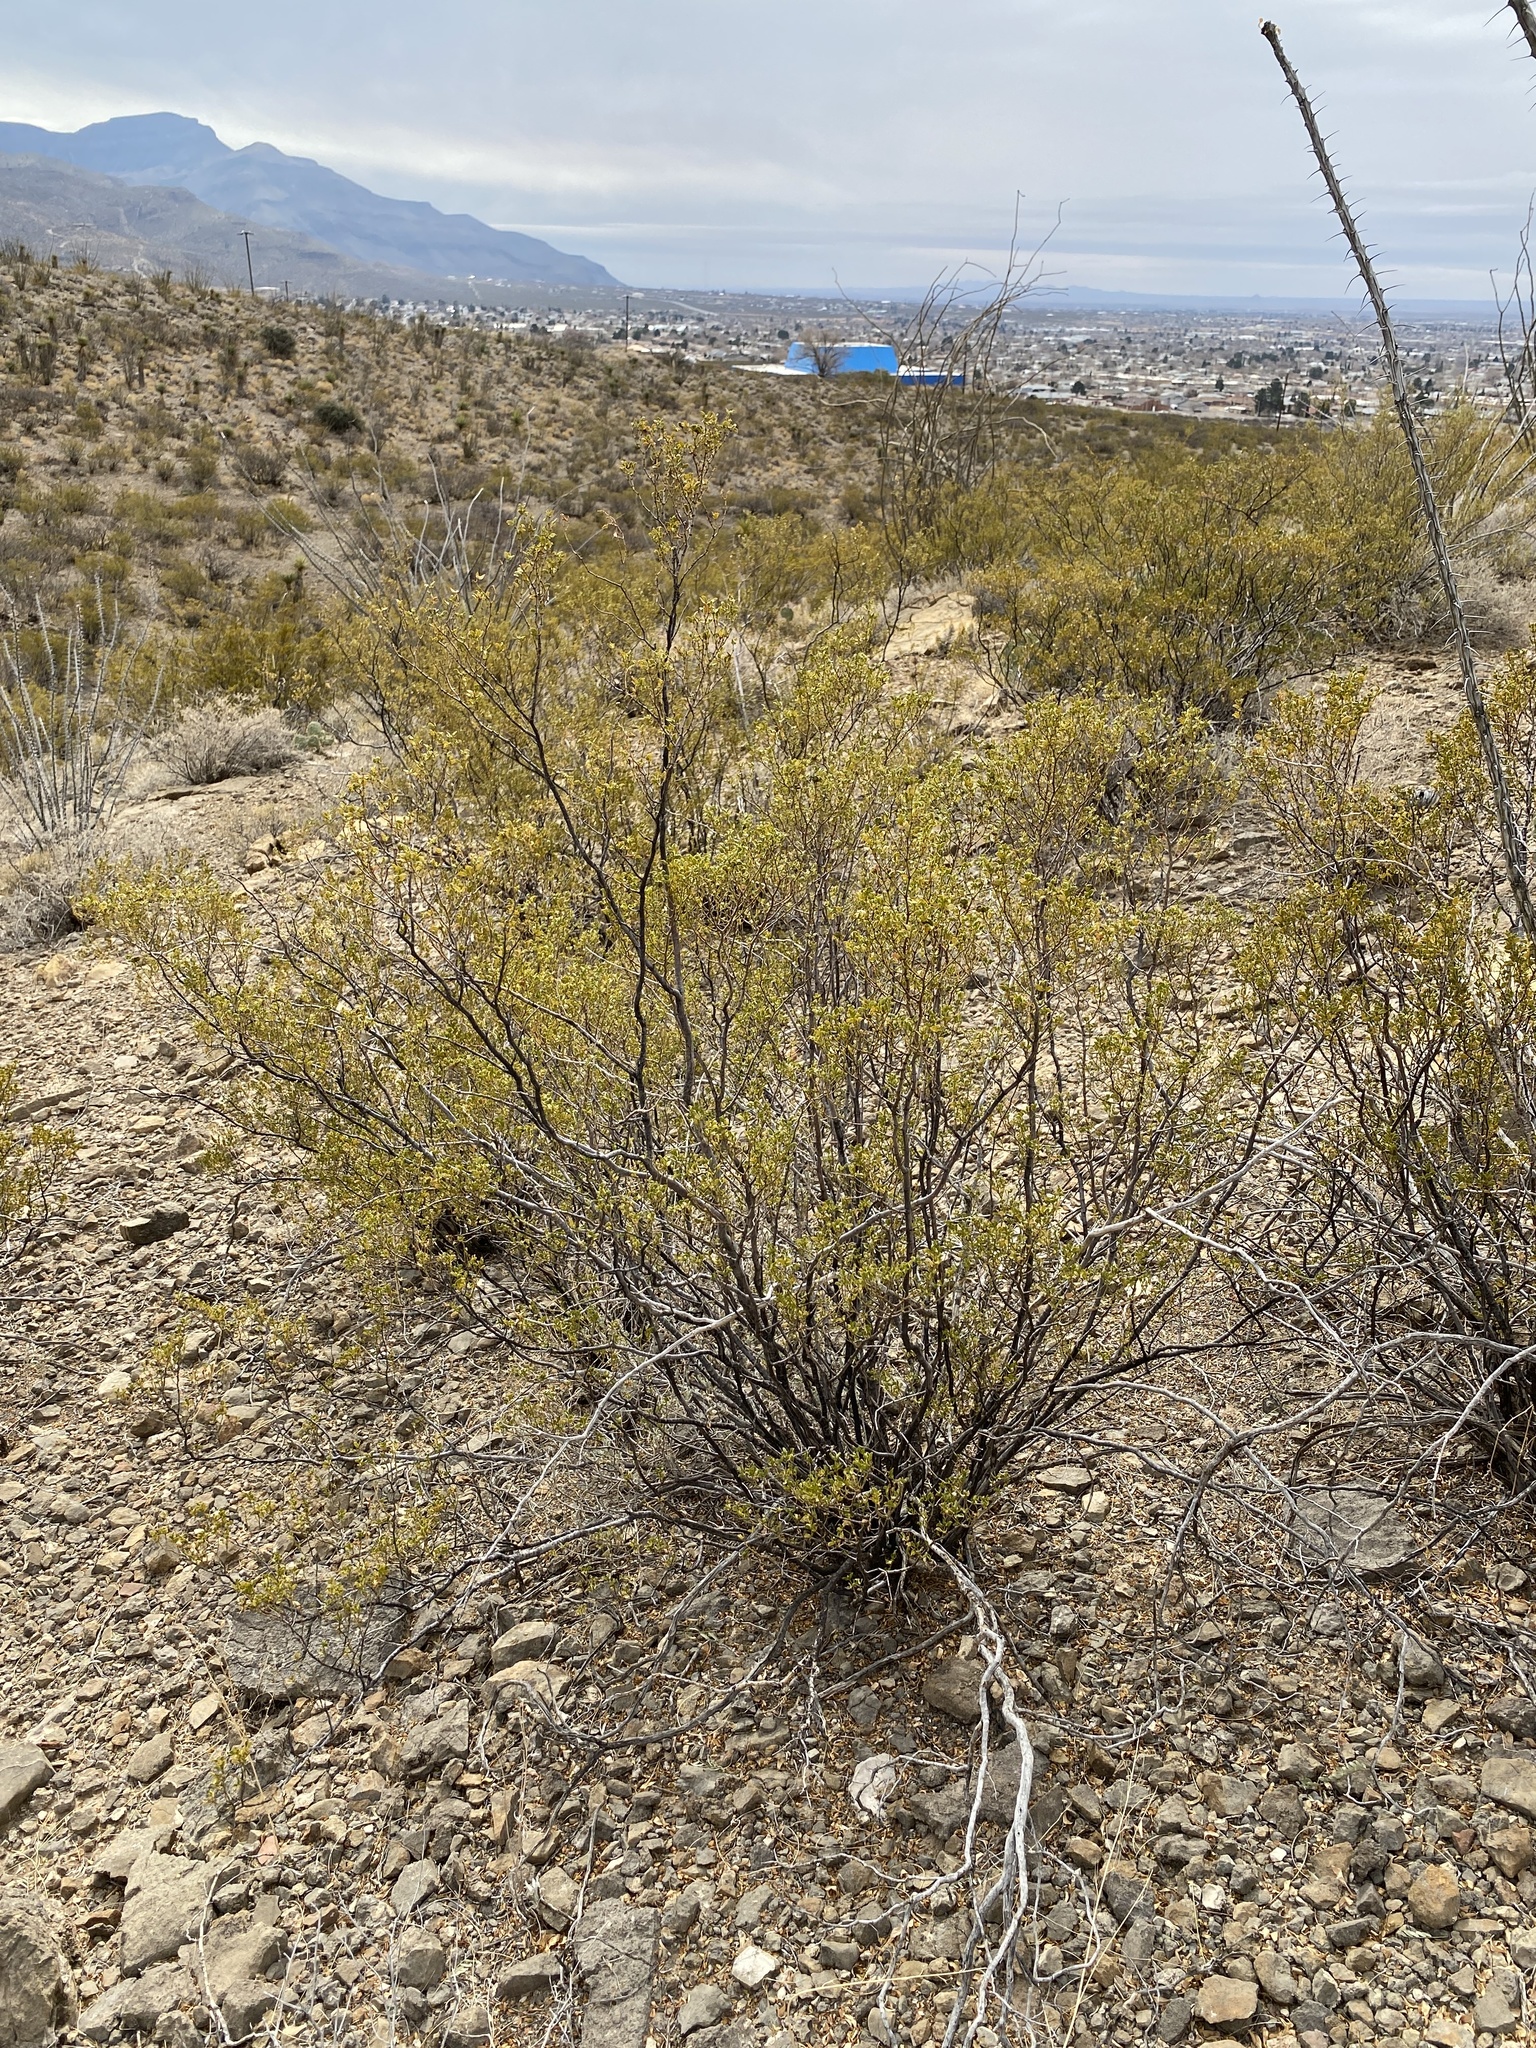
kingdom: Plantae
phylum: Tracheophyta
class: Magnoliopsida
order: Zygophyllales
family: Zygophyllaceae
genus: Larrea
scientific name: Larrea tridentata
